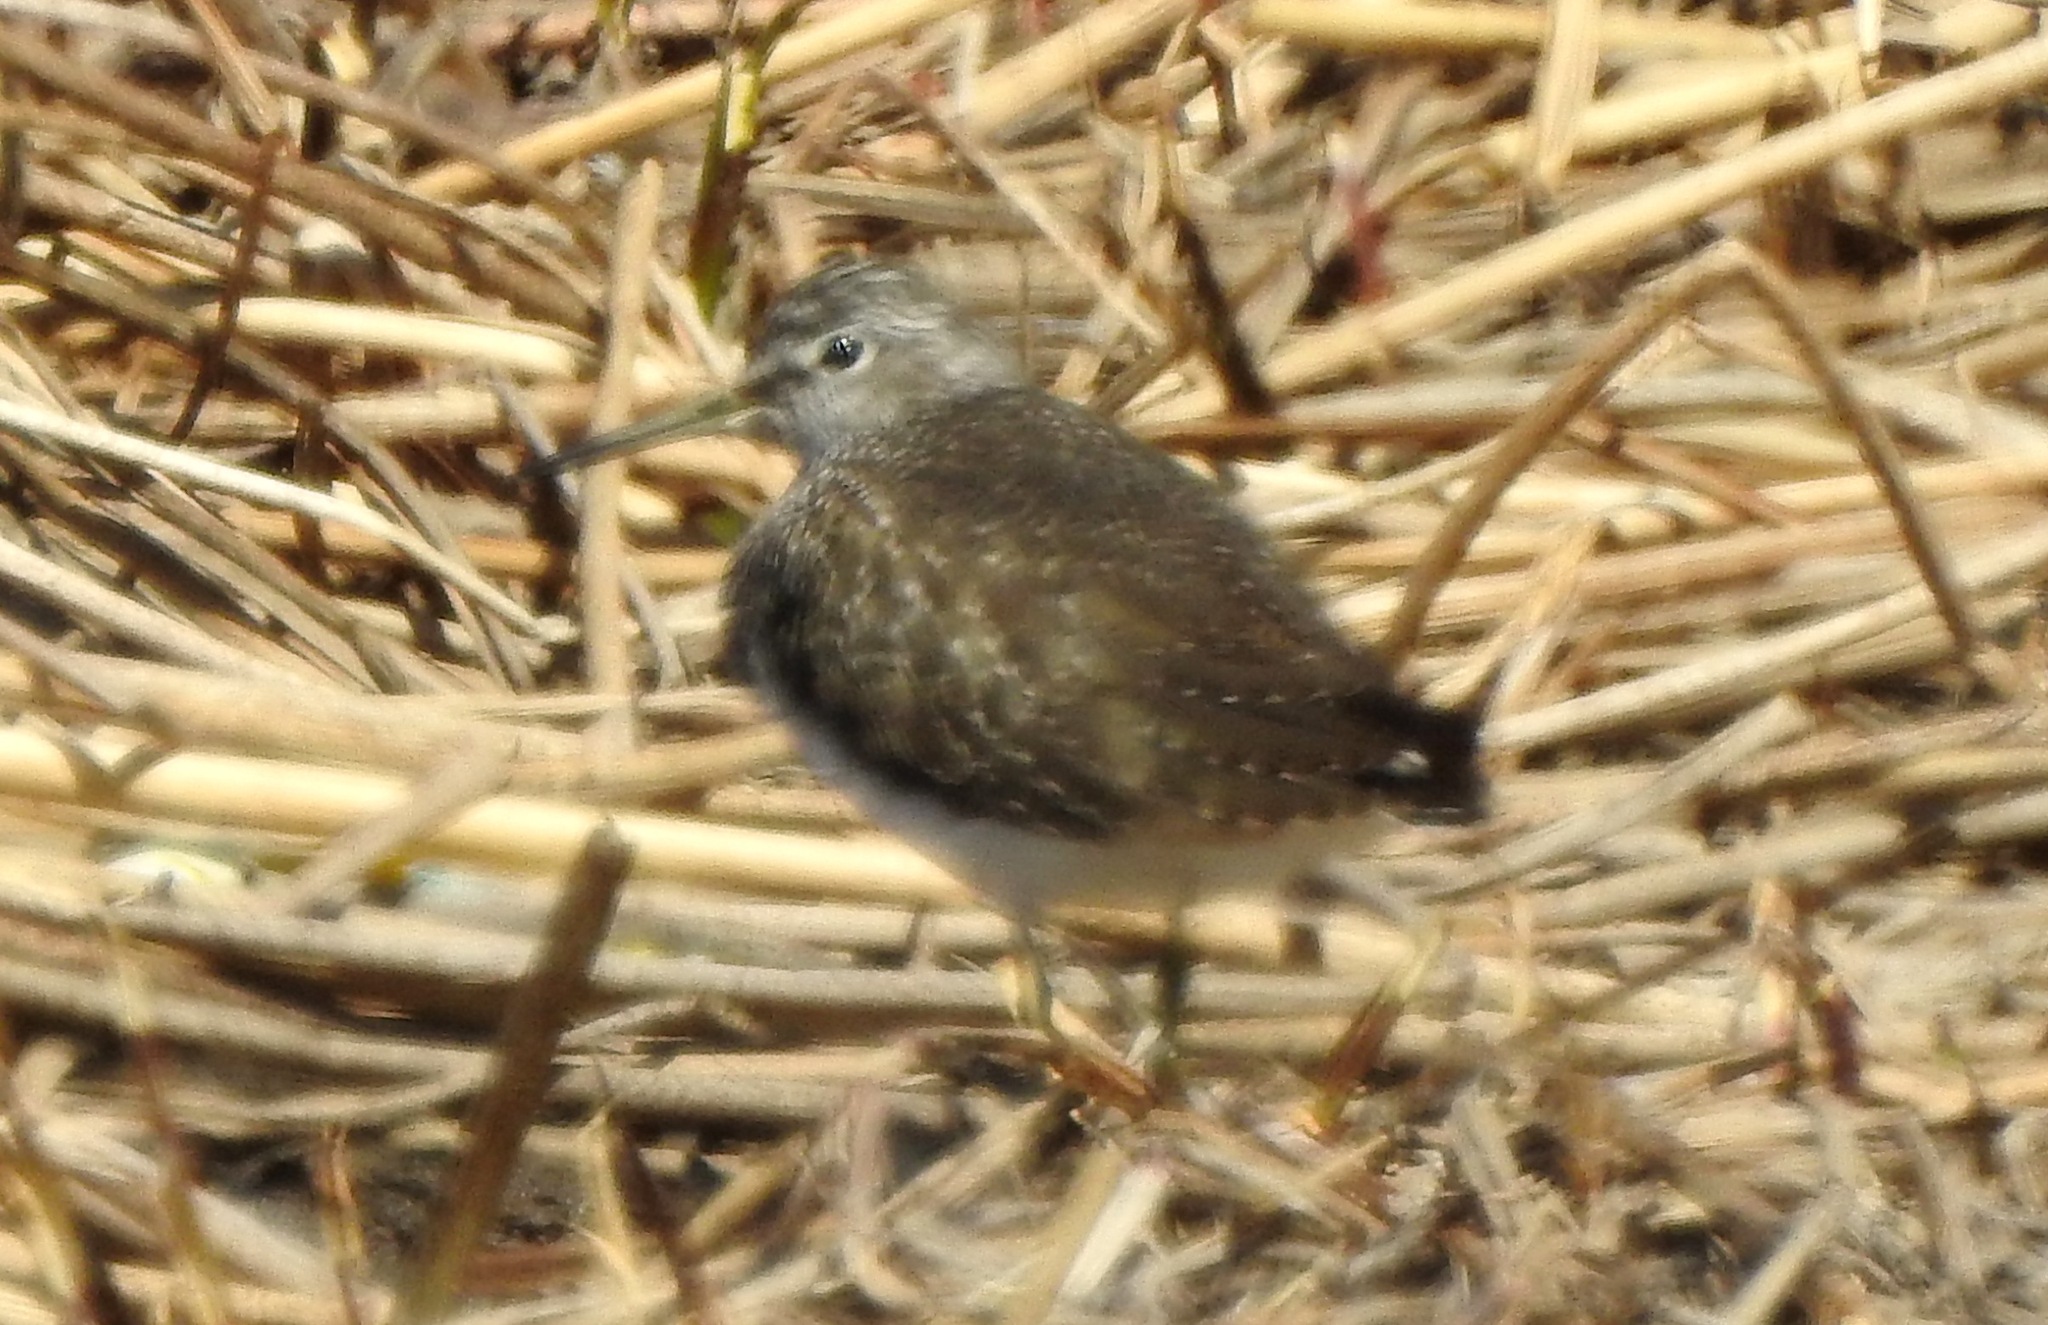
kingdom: Animalia
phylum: Chordata
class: Aves
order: Charadriiformes
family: Scolopacidae
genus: Tringa
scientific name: Tringa ochropus
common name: Green sandpiper
